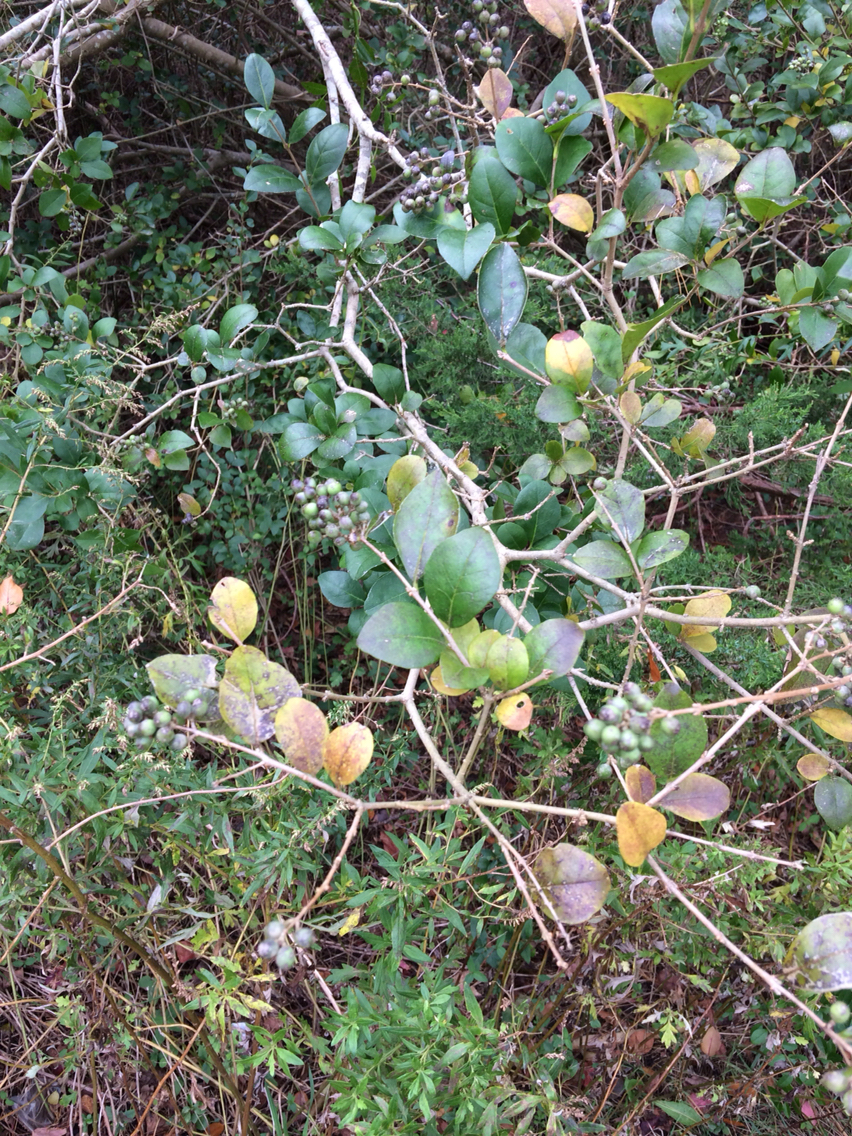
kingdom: Plantae
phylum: Tracheophyta
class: Magnoliopsida
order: Lamiales
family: Oleaceae
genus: Ligustrum
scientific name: Ligustrum ovalifolium
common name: California privet
